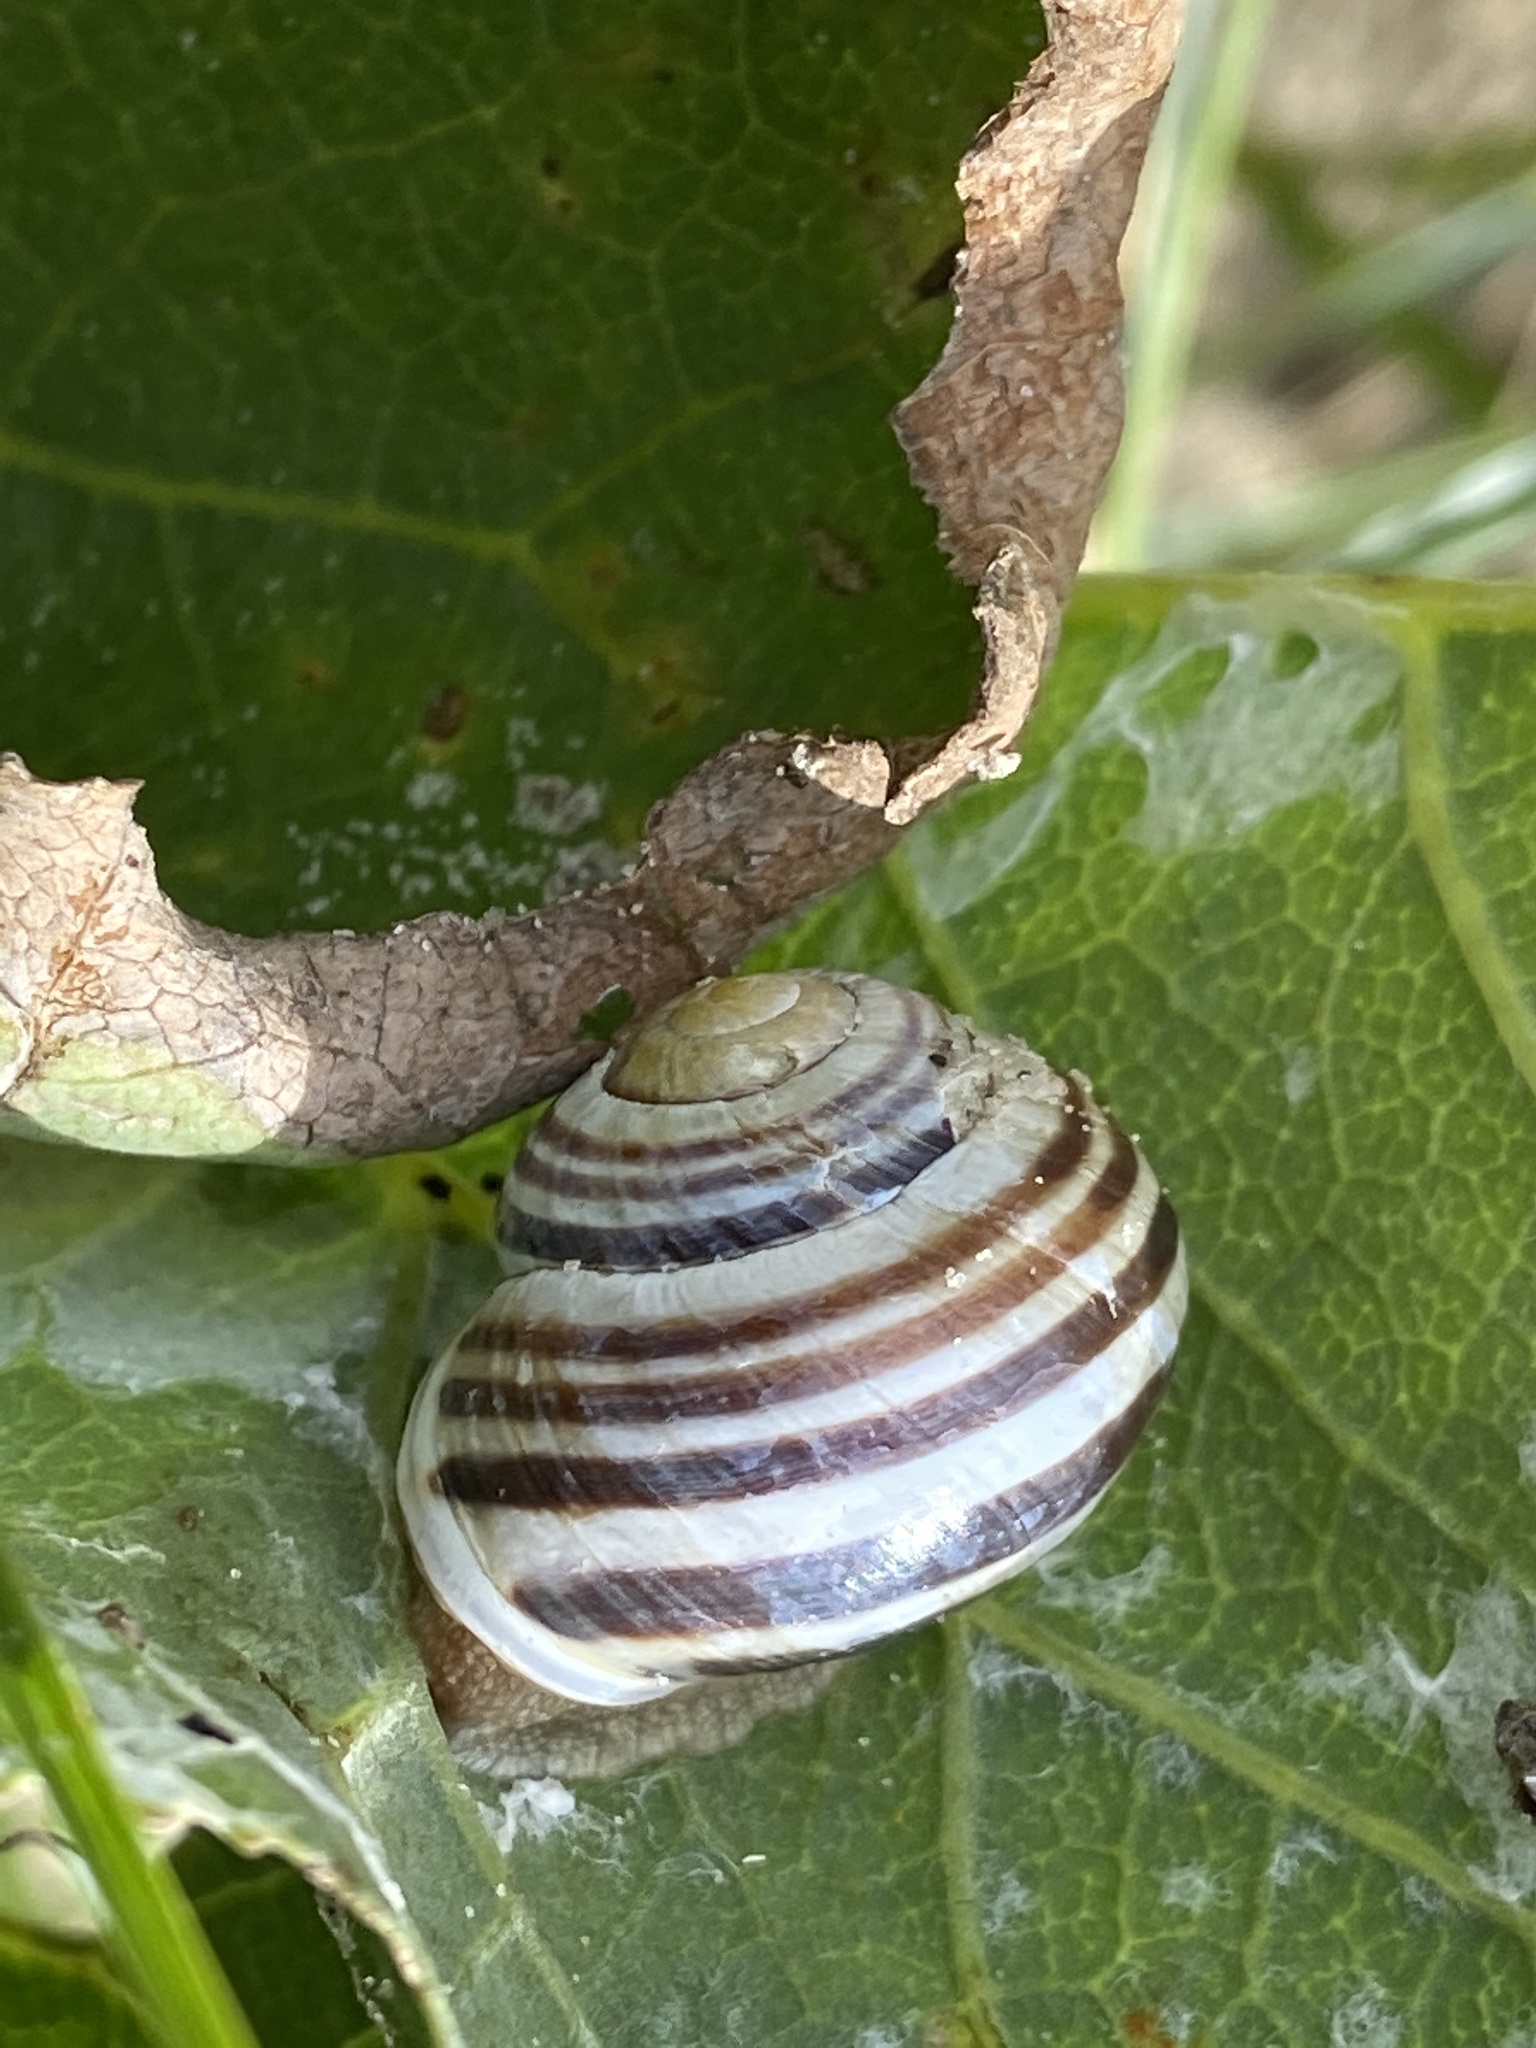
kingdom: Animalia
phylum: Mollusca
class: Gastropoda
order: Stylommatophora
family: Helicidae
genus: Cepaea
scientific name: Cepaea hortensis
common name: White-lip gardensnail
